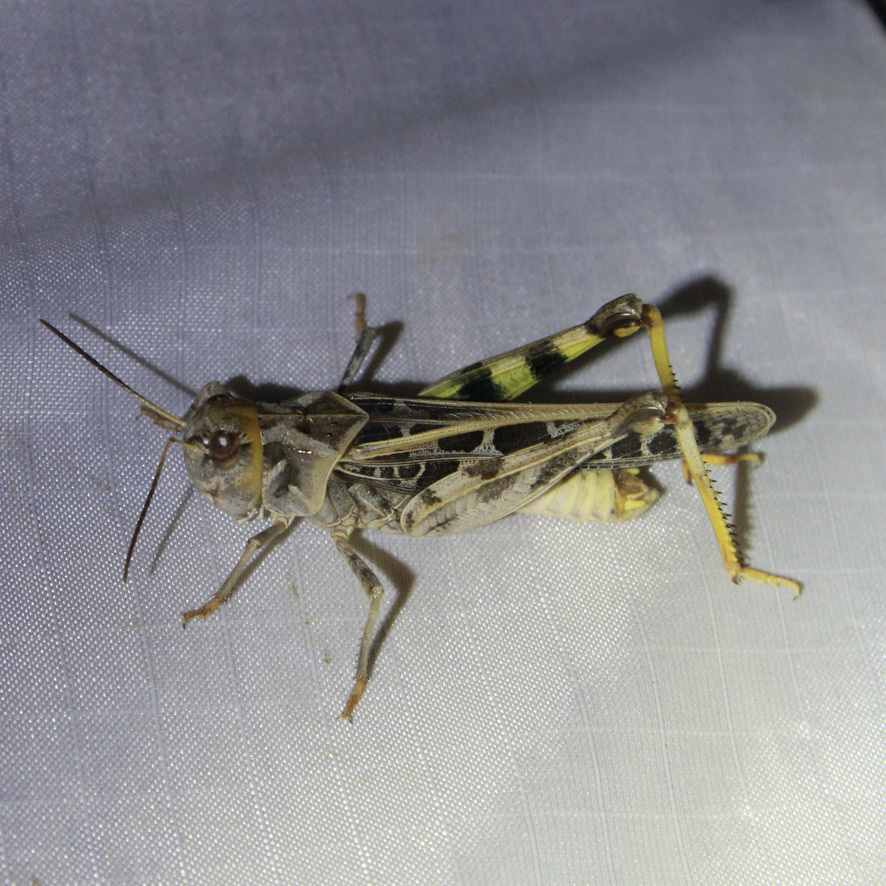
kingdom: Animalia
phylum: Arthropoda
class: Insecta
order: Orthoptera
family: Acrididae
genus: Hippiscus
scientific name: Hippiscus ocelote
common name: Wrinkled grasshopper
